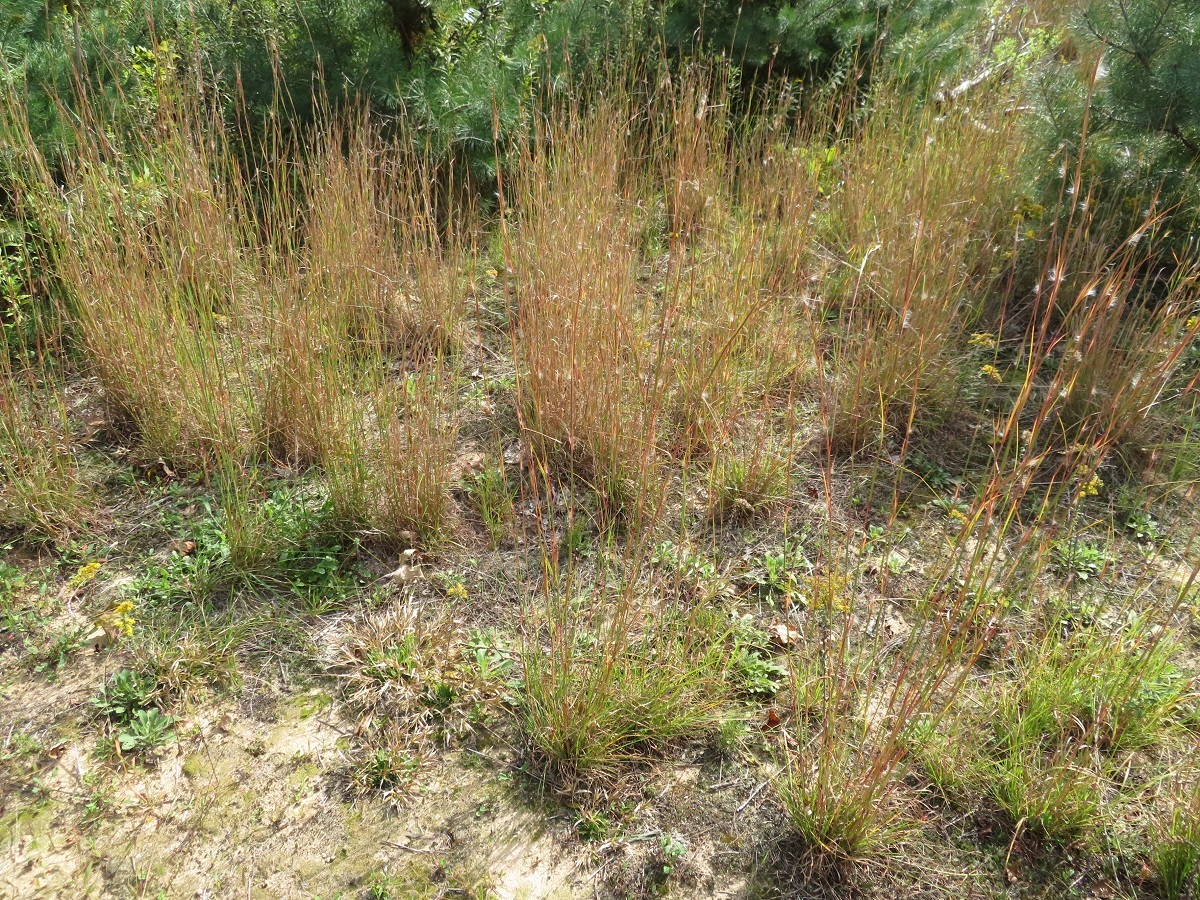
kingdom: Plantae
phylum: Tracheophyta
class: Liliopsida
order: Poales
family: Poaceae
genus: Andropogon
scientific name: Andropogon virginicus
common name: Broomsedge bluestem
